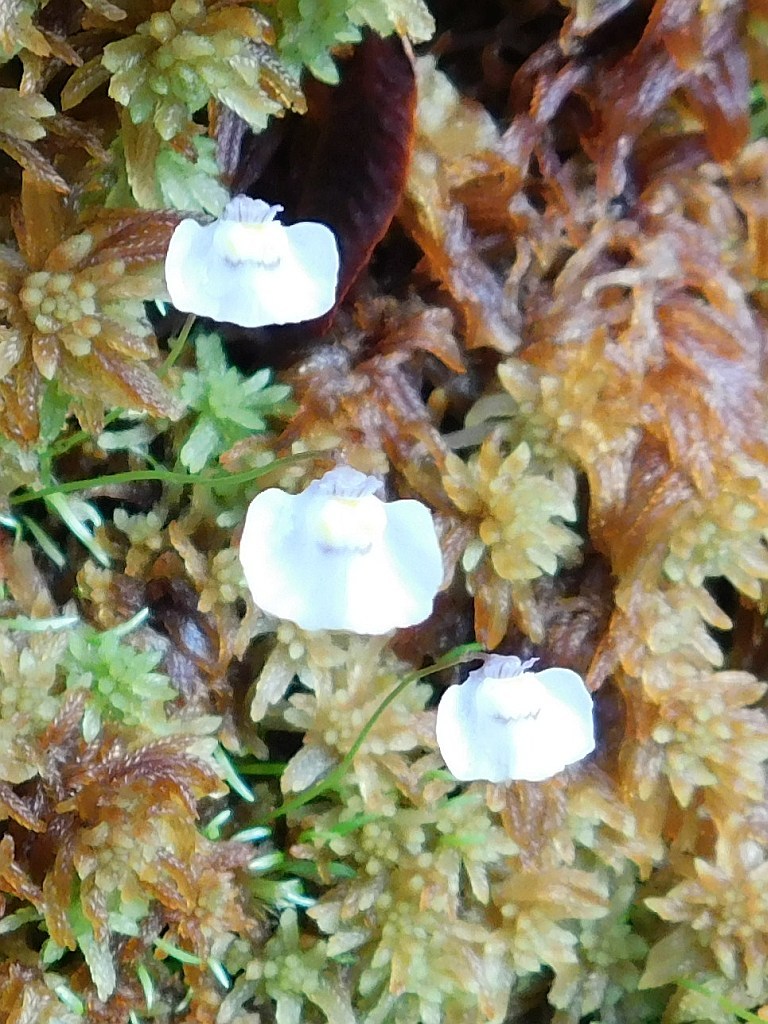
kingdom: Plantae
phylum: Tracheophyta
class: Magnoliopsida
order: Lamiales
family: Lentibulariaceae
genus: Utricularia
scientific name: Utricularia bisquamata
